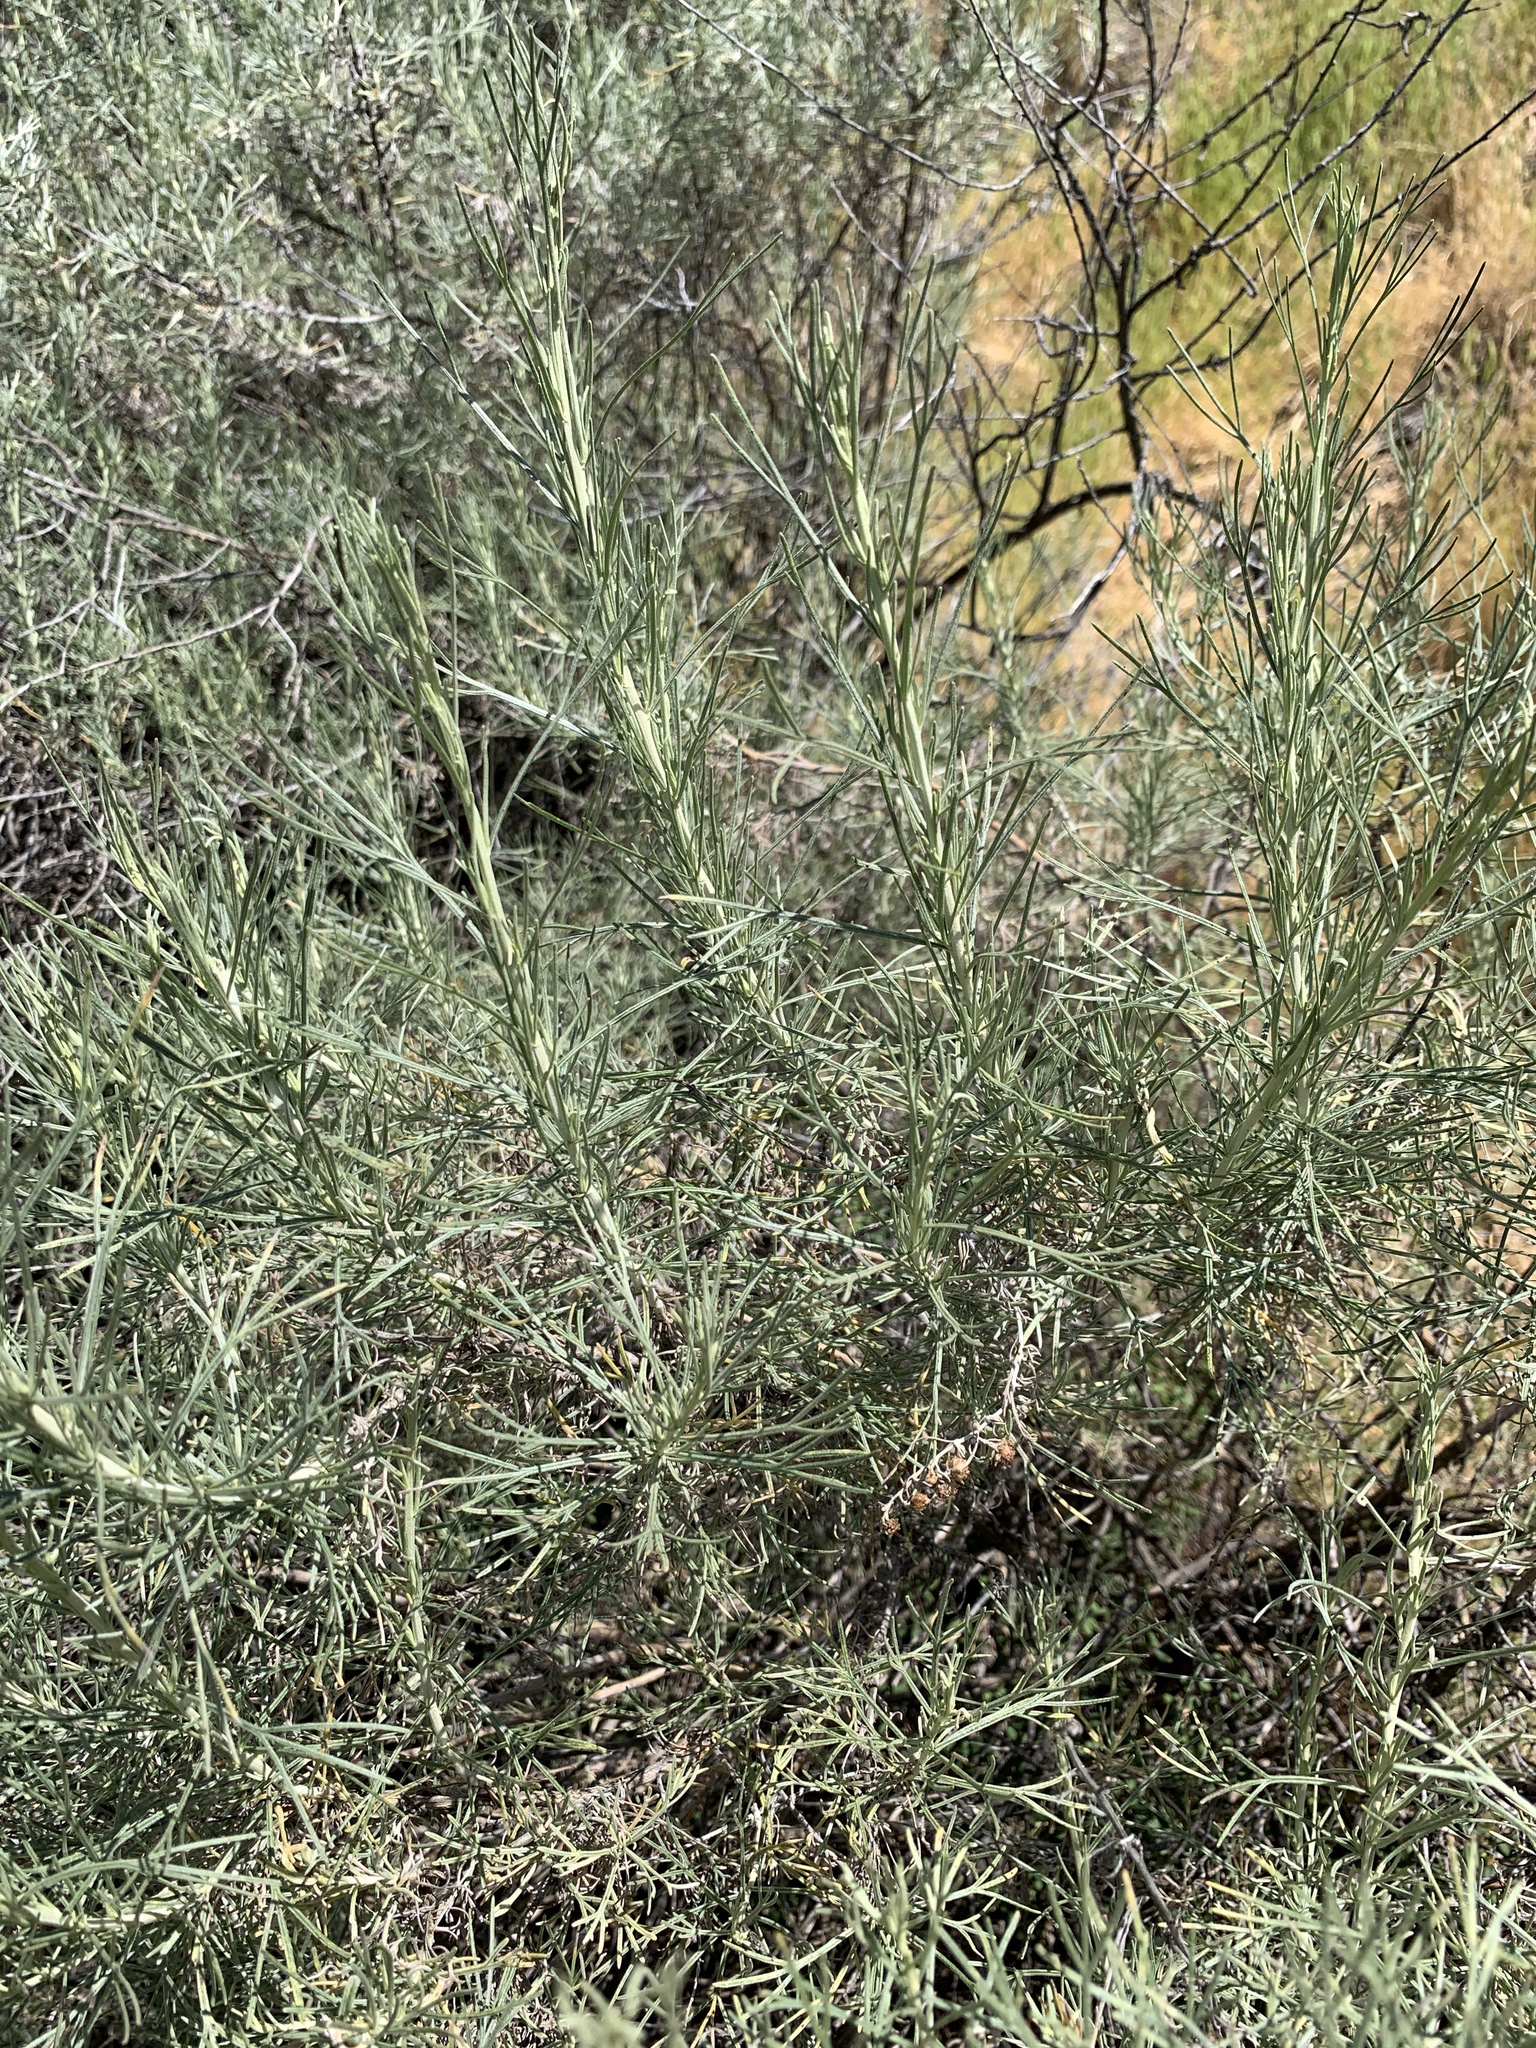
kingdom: Plantae
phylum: Tracheophyta
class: Magnoliopsida
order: Asterales
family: Asteraceae
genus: Artemisia
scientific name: Artemisia californica
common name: California sagebrush
